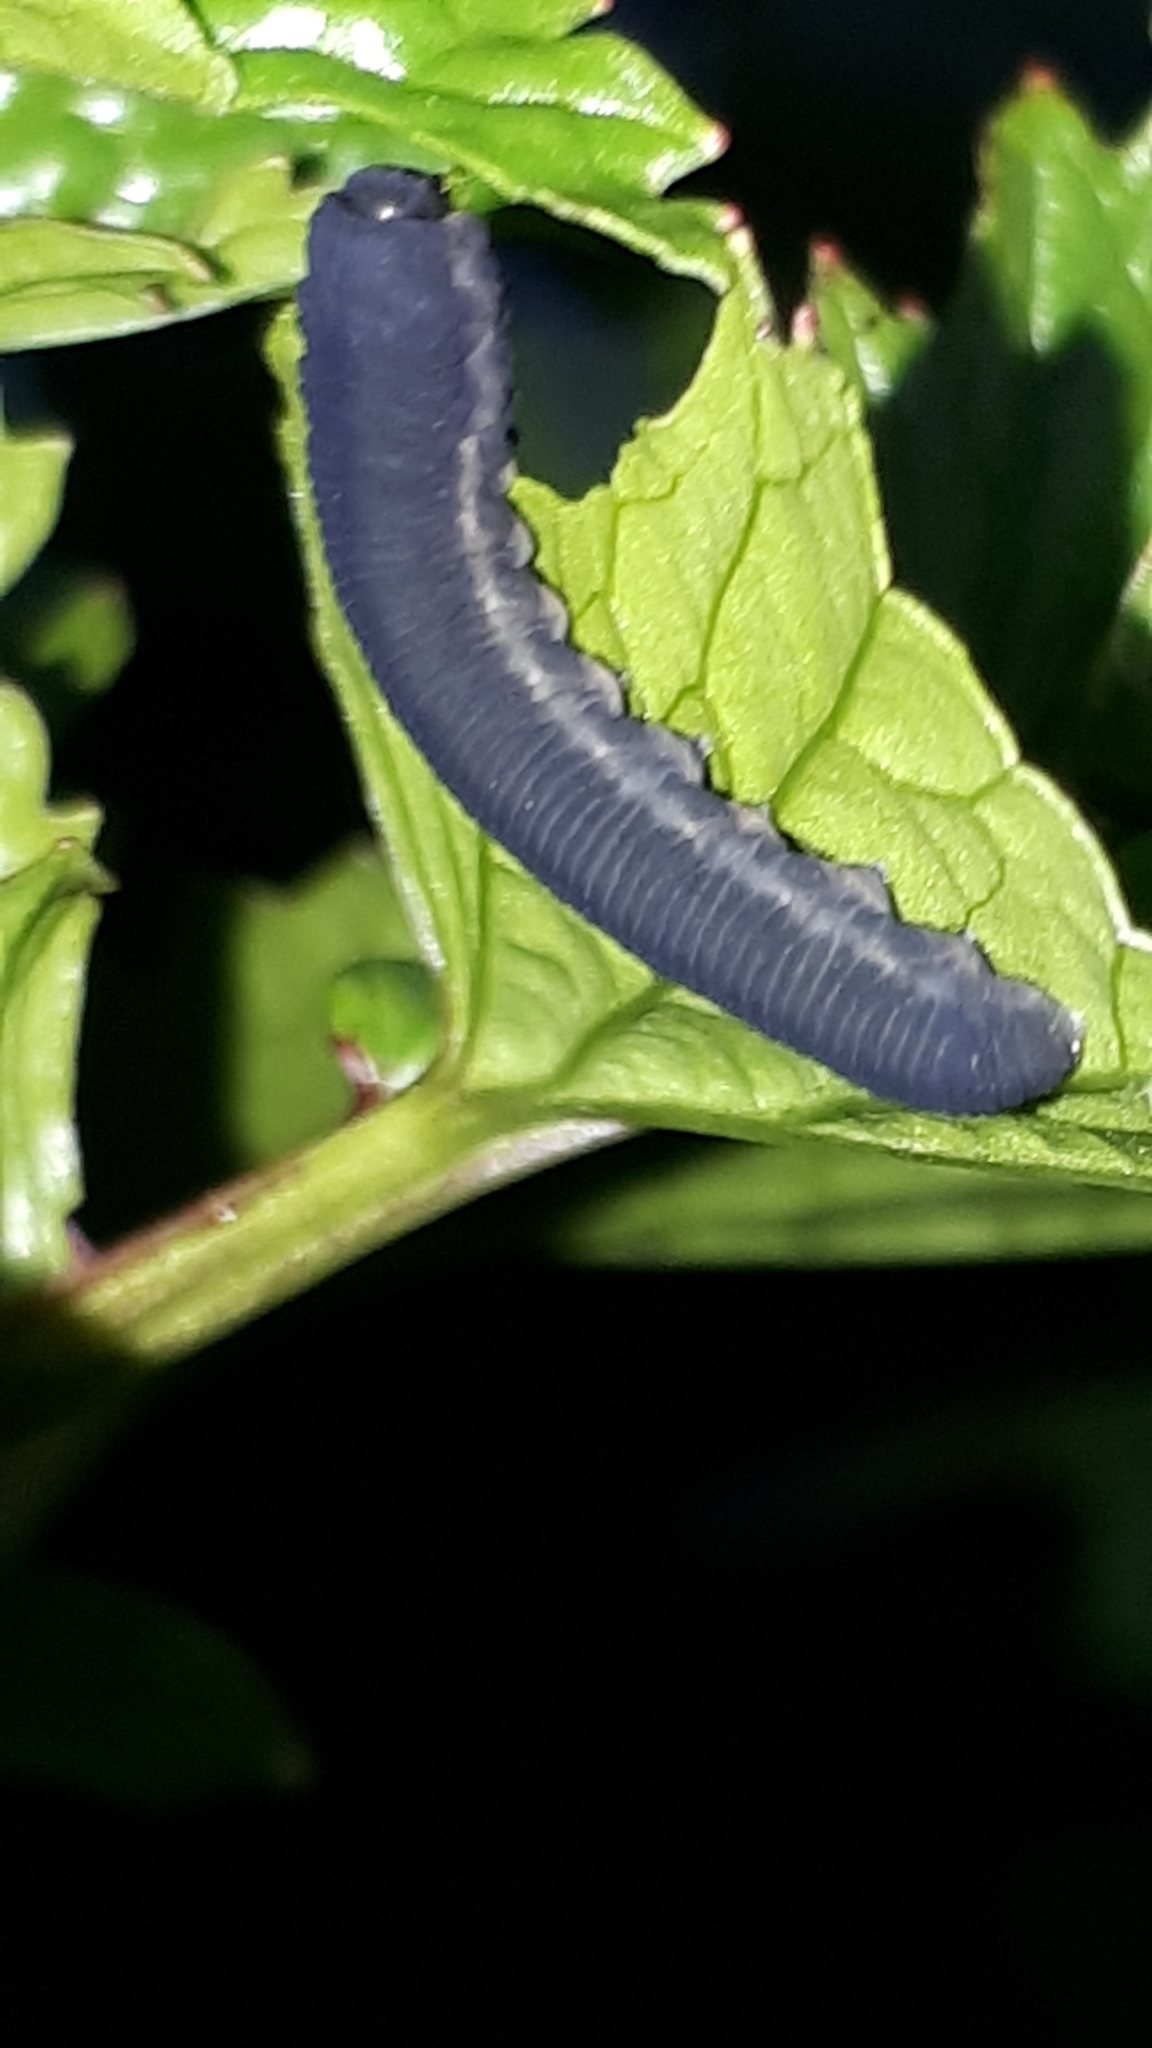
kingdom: Animalia
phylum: Arthropoda
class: Insecta
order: Hymenoptera
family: Tenthredinidae
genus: Athalia
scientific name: Athalia rosae
